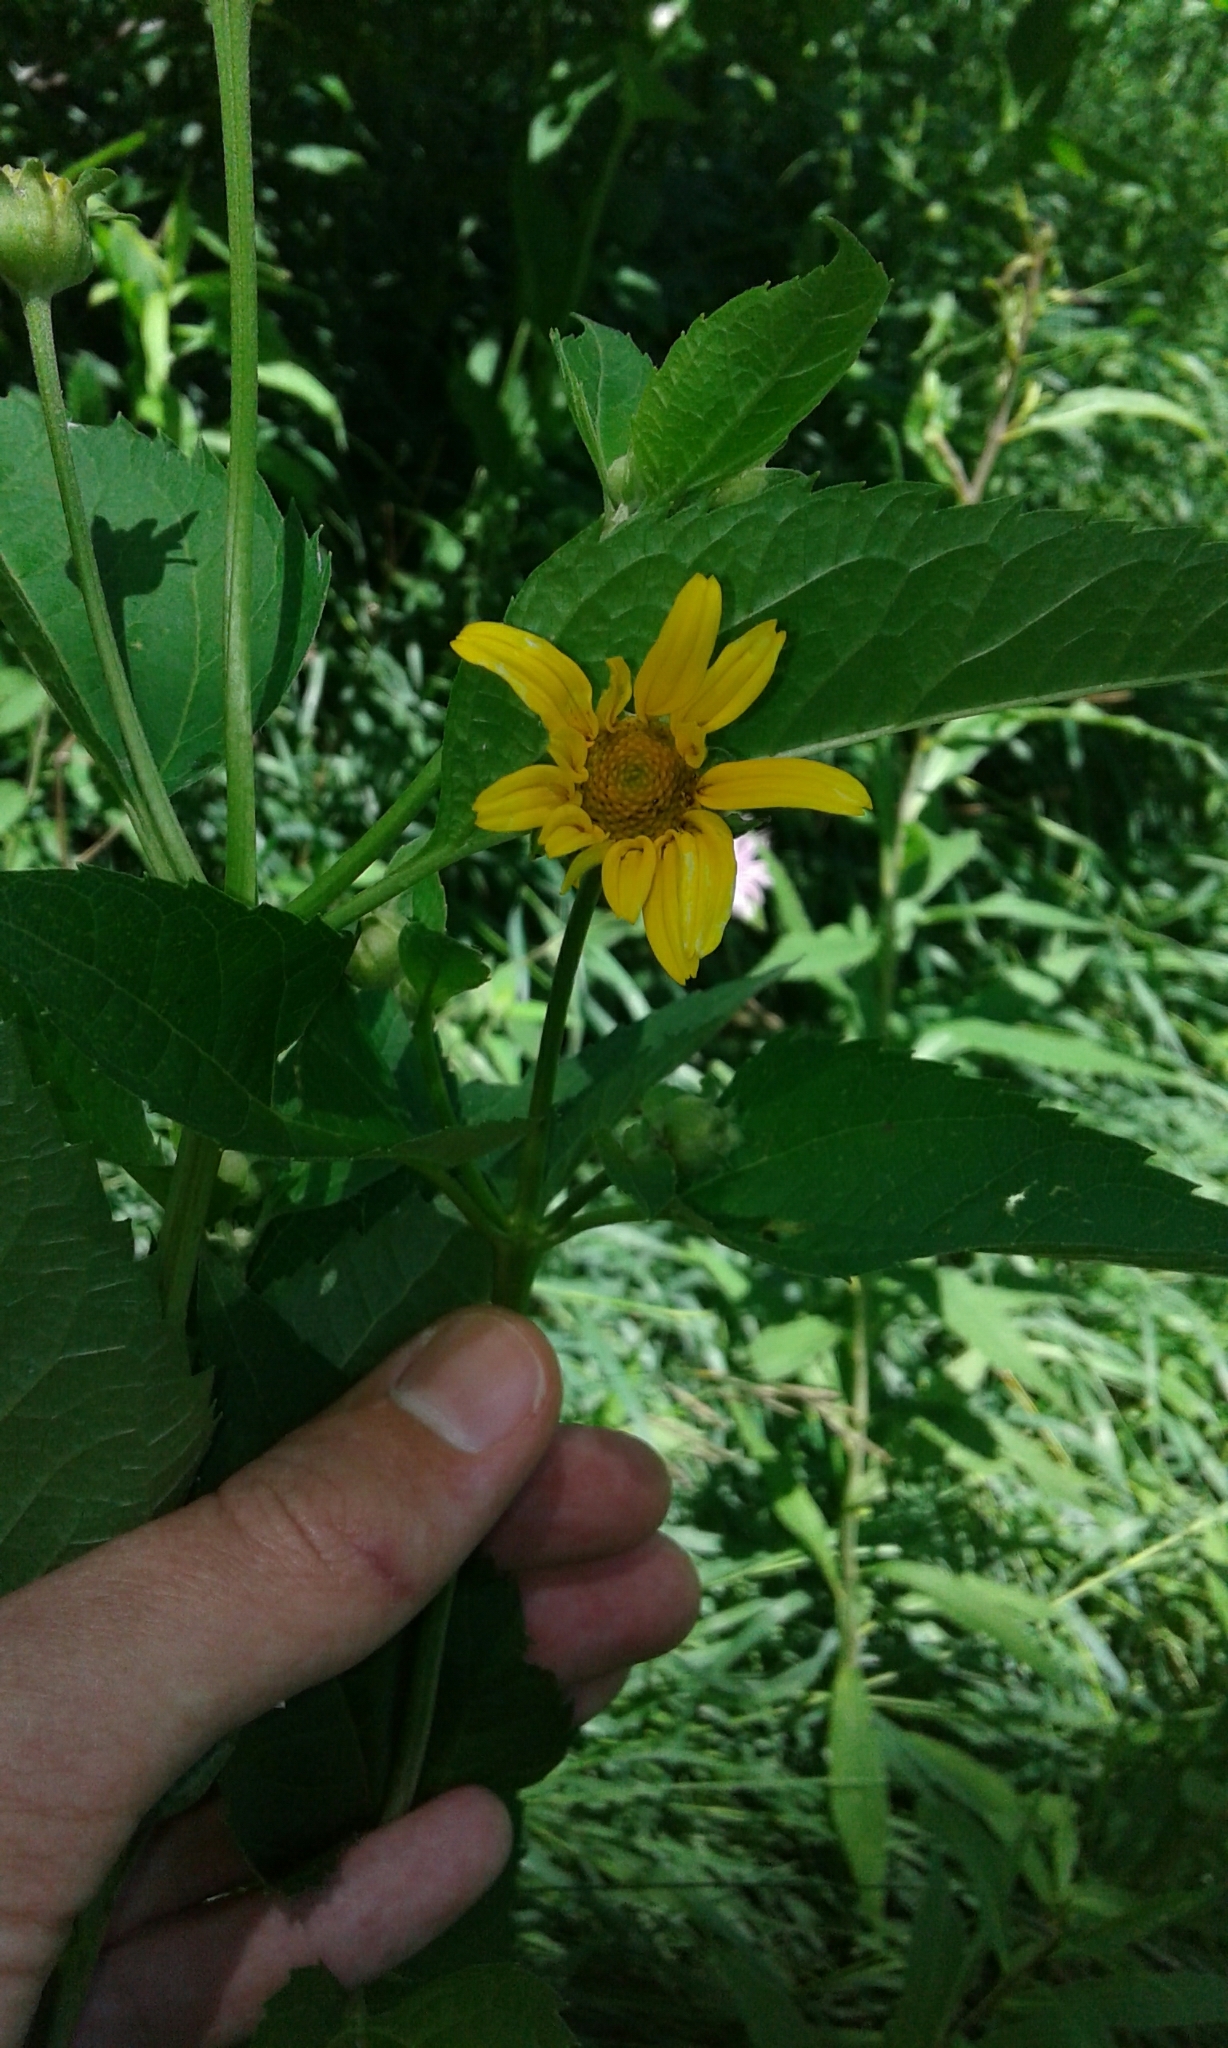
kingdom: Plantae
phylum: Tracheophyta
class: Magnoliopsida
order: Asterales
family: Asteraceae
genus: Heliopsis
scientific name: Heliopsis helianthoides
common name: False sunflower
